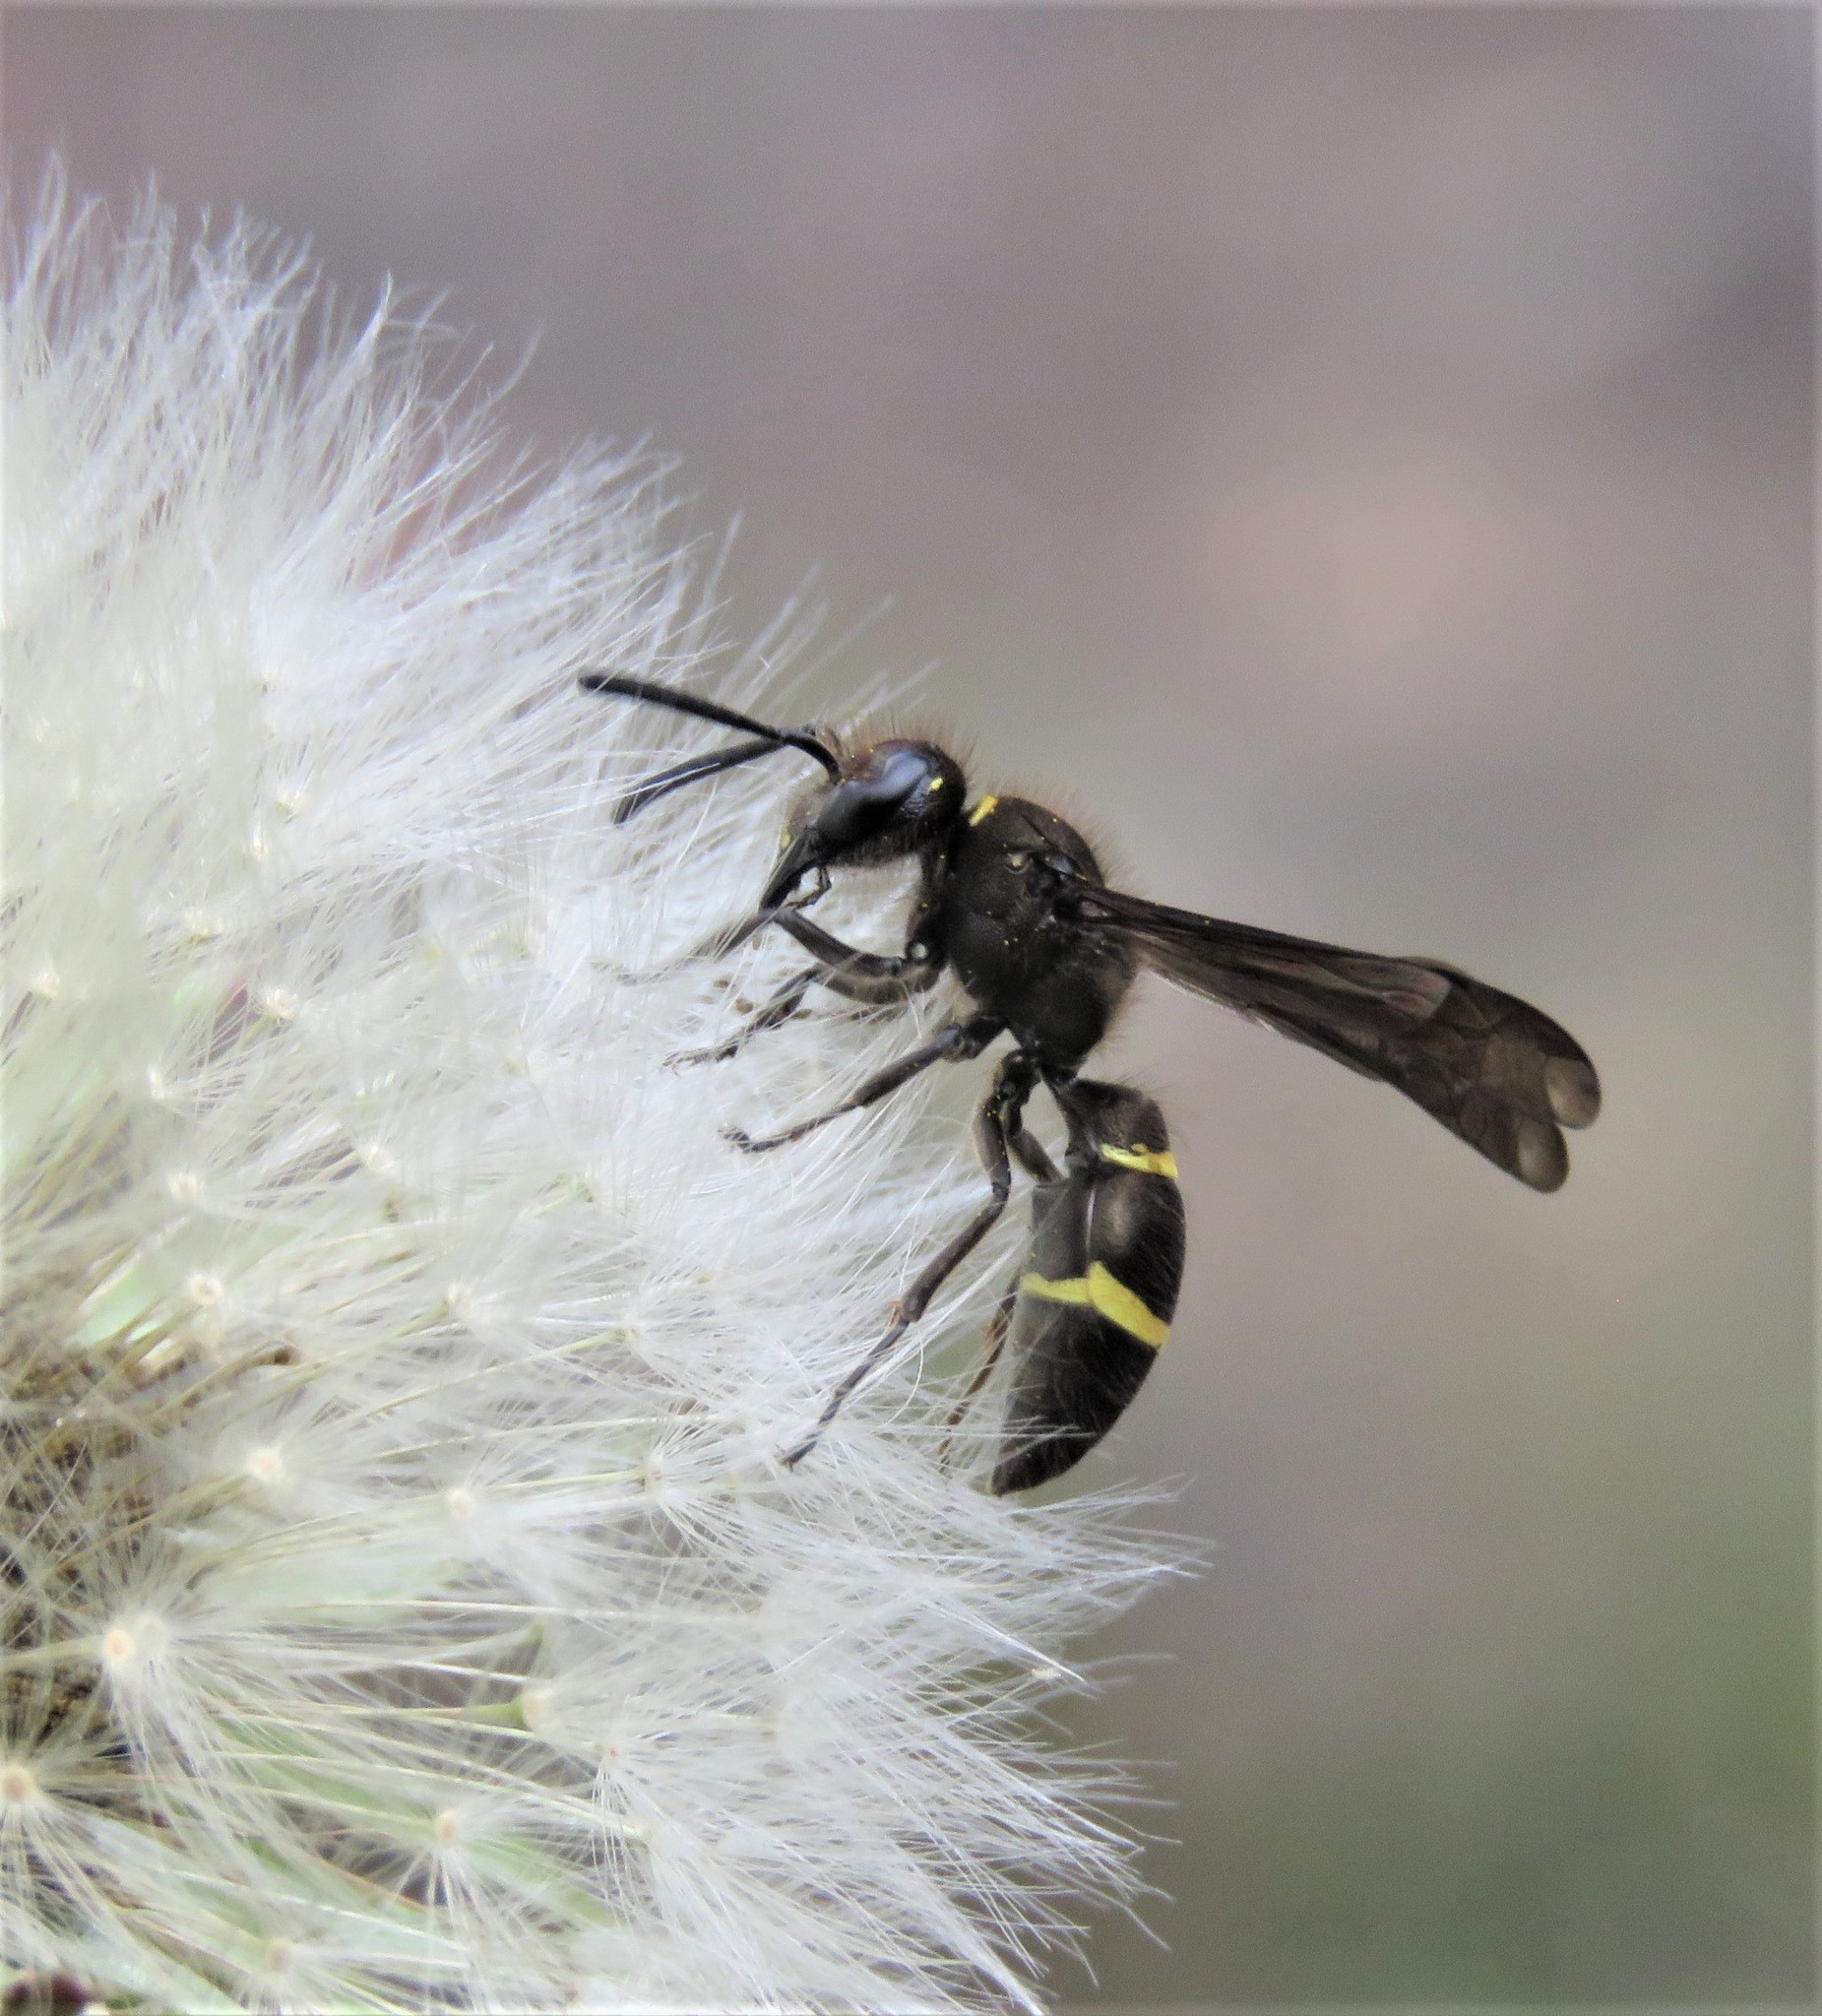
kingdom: Plantae
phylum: Tracheophyta
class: Magnoliopsida
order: Asterales
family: Asteraceae
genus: Taraxacum
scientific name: Taraxacum officinale
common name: Common dandelion
